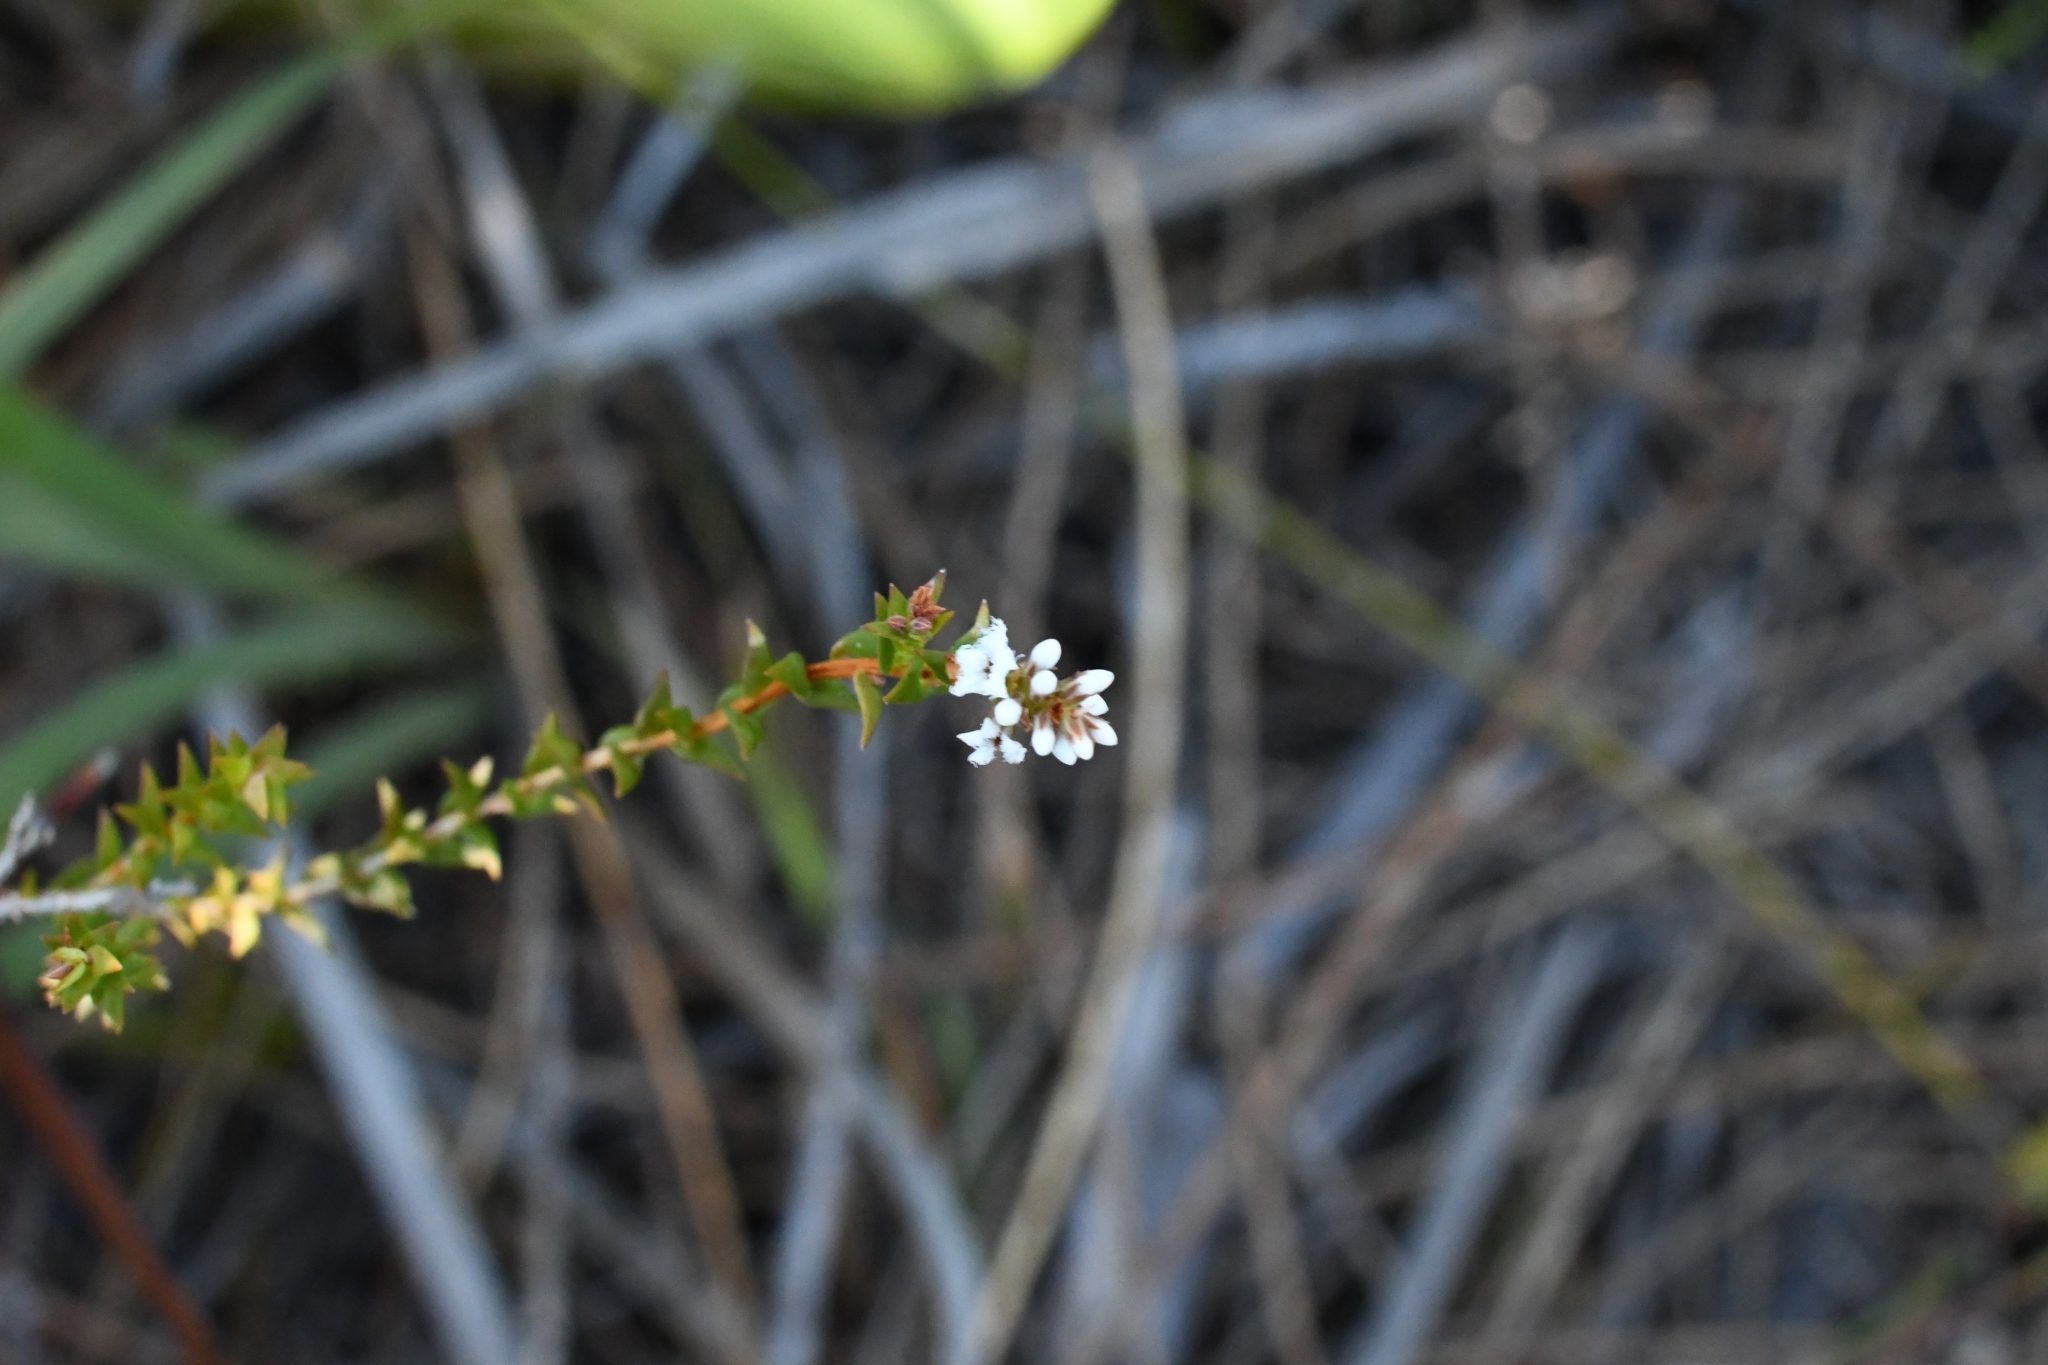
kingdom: Plantae
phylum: Tracheophyta
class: Magnoliopsida
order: Ericales
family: Ericaceae
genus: Leucopogon
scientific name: Leucopogon glabellus
